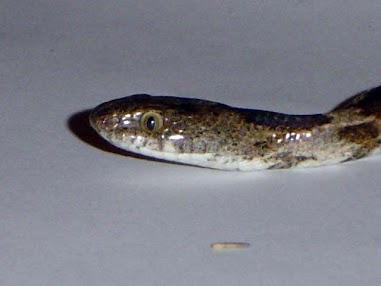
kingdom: Animalia
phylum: Chordata
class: Squamata
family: Colubridae
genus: Telescopus
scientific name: Telescopus fallax
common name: Cat snake
